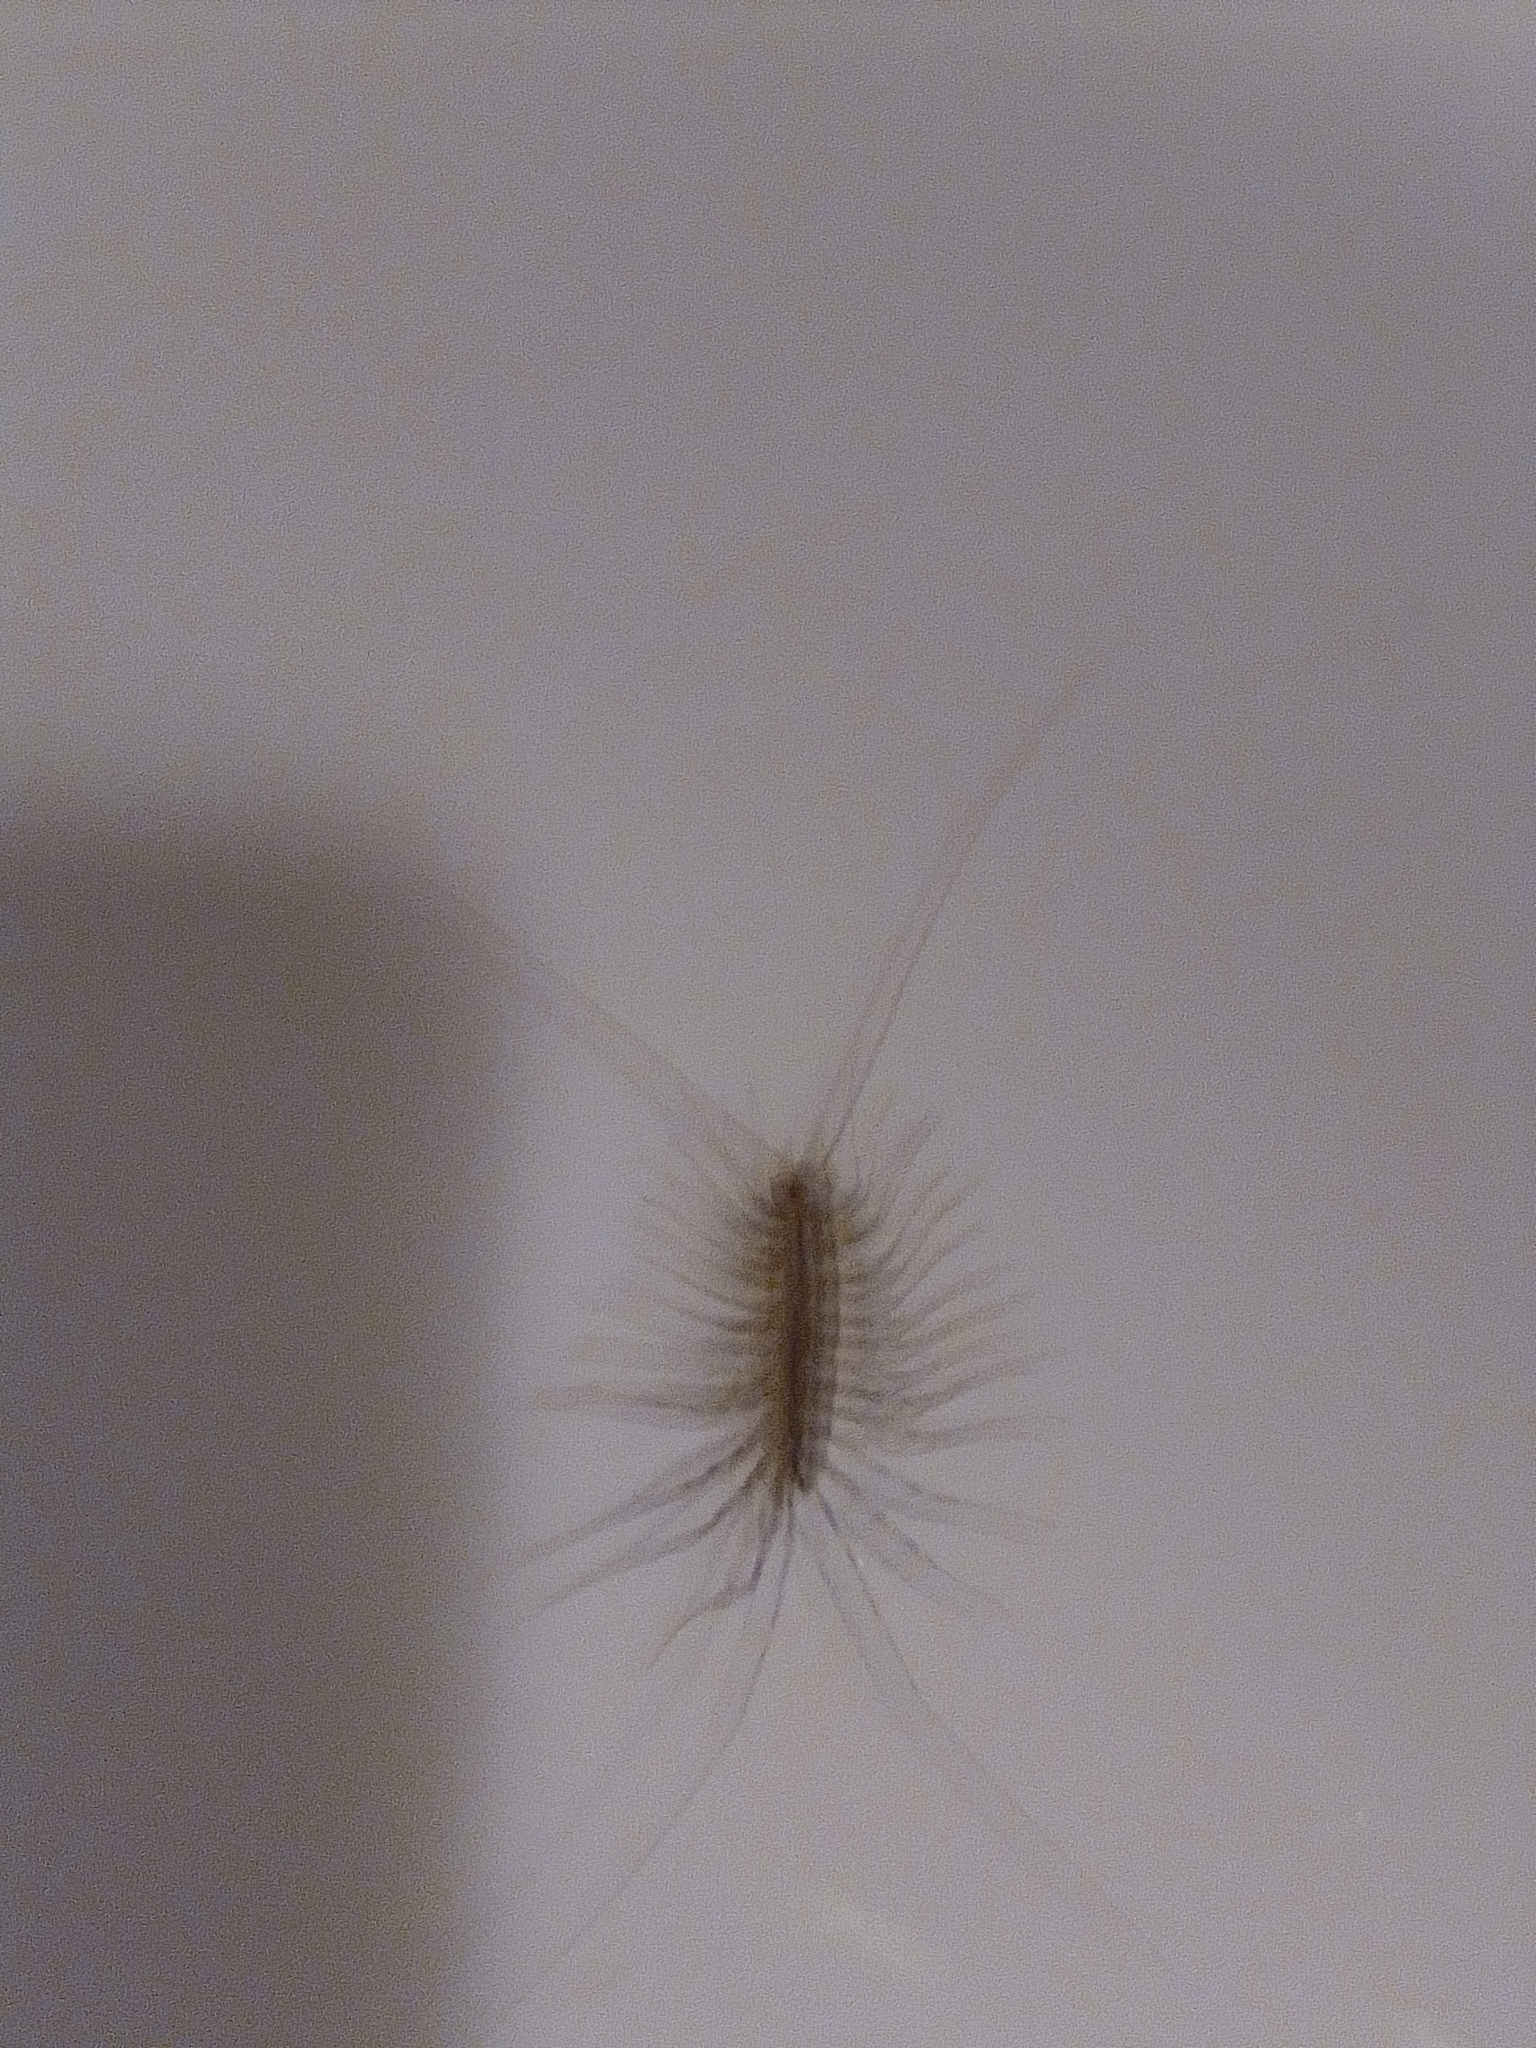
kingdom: Animalia
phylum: Arthropoda
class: Chilopoda
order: Scutigeromorpha
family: Scutigeridae
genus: Scutigera
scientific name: Scutigera coleoptrata
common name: House centipede
